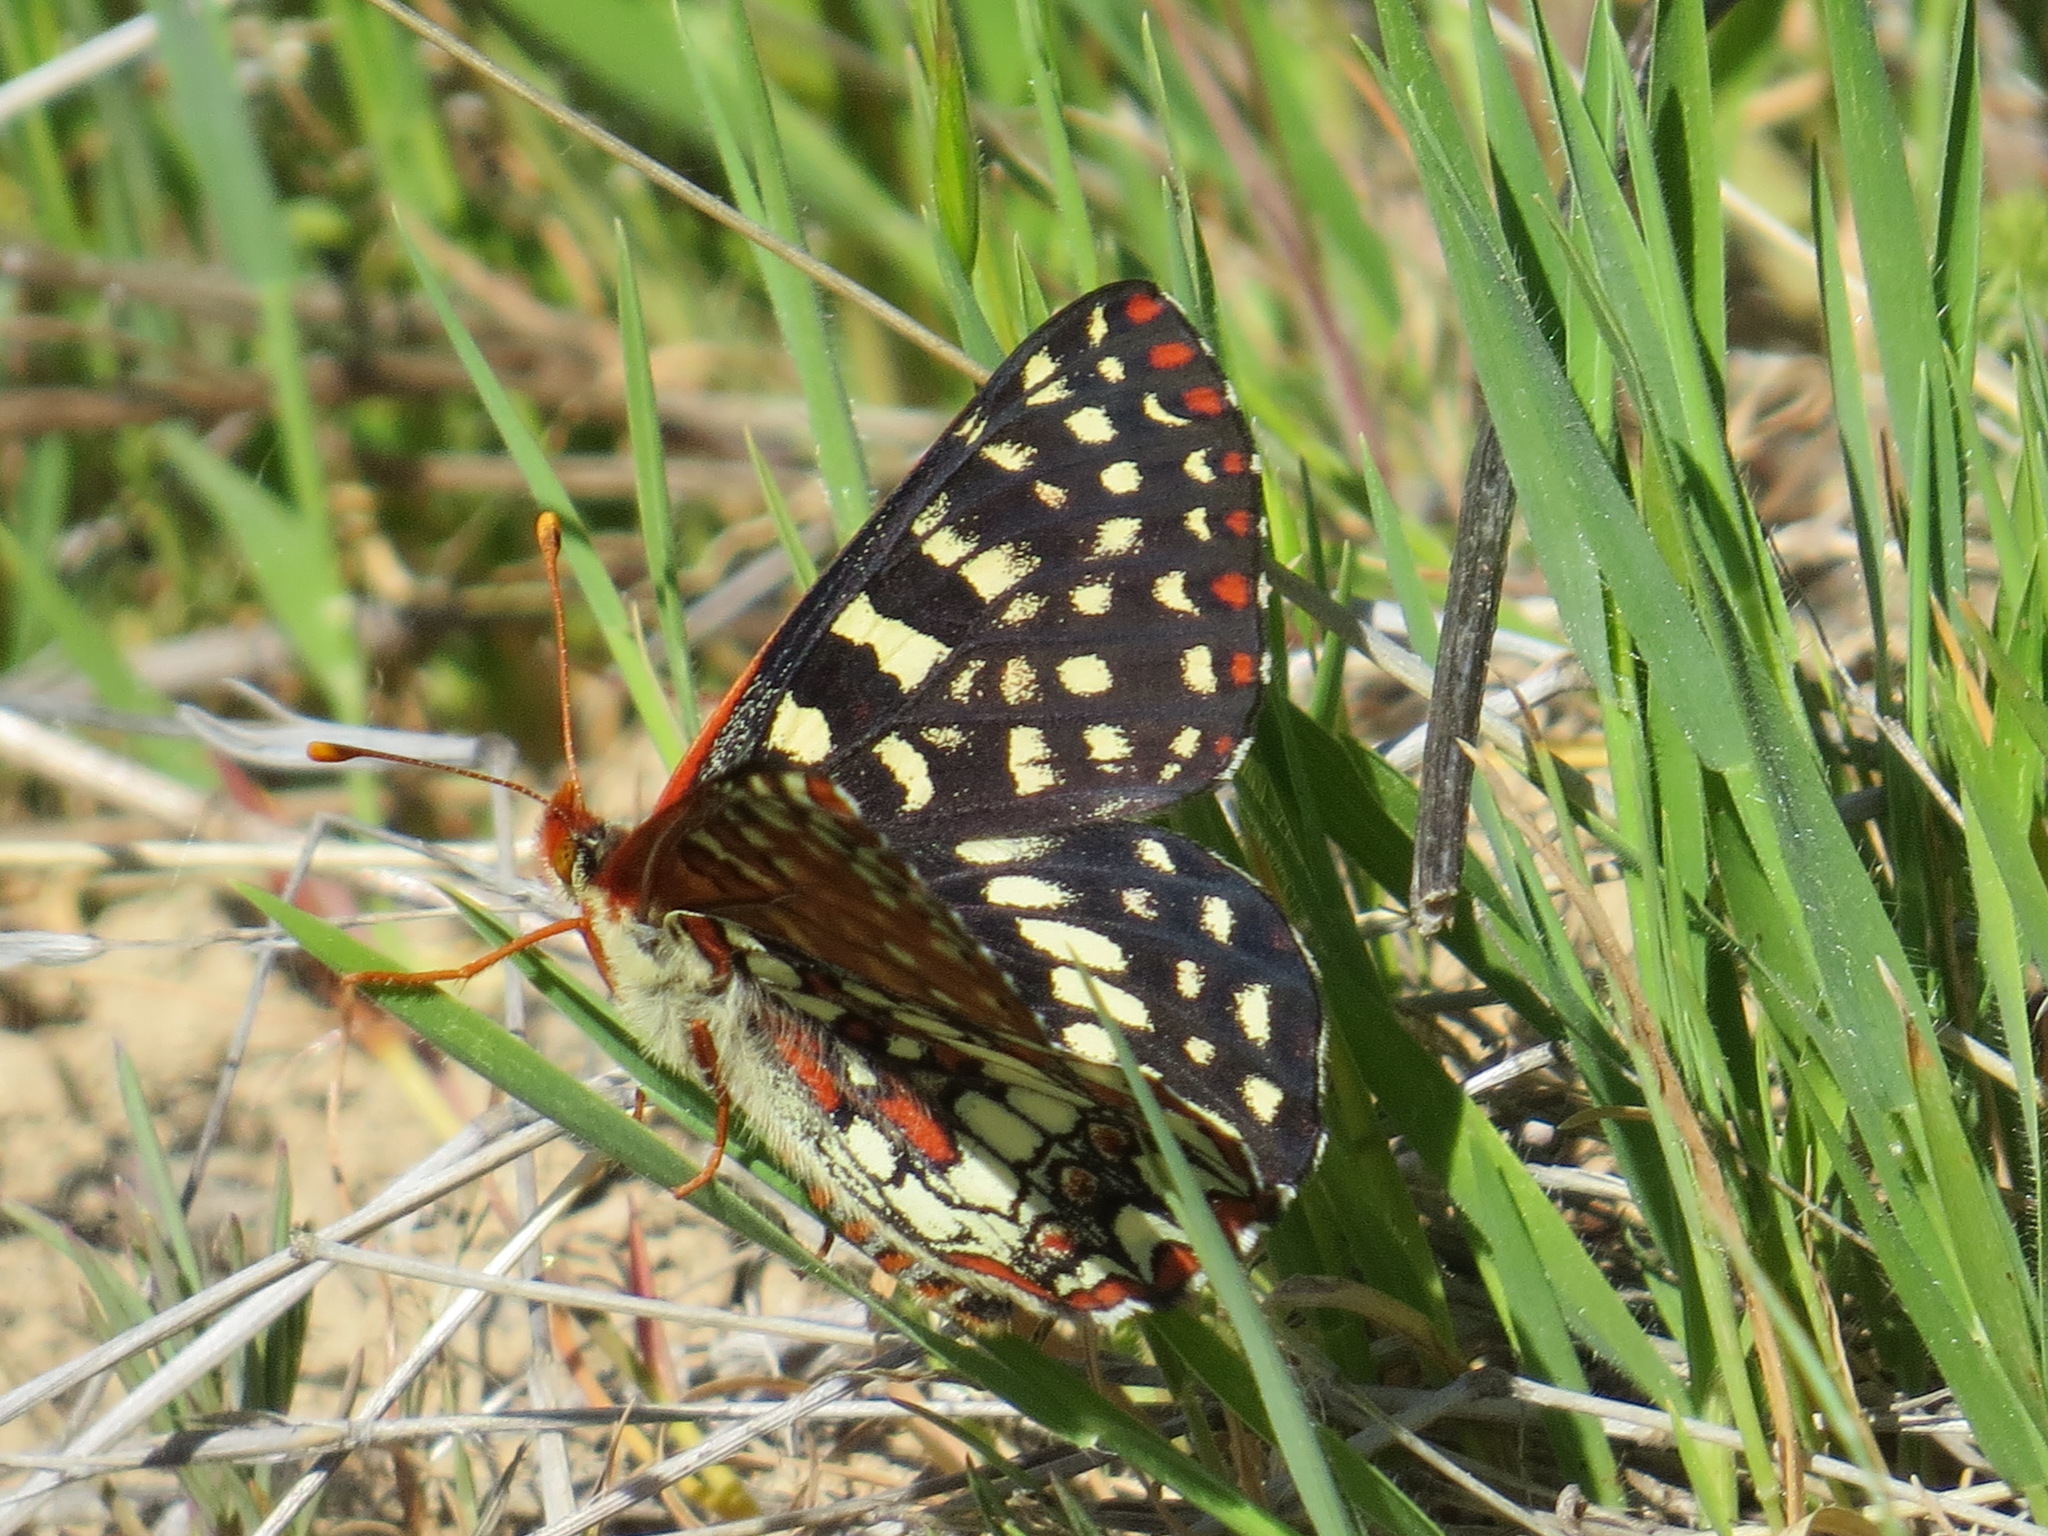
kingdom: Animalia
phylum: Arthropoda
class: Insecta
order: Lepidoptera
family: Nymphalidae
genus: Occidryas
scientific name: Occidryas chalcedona
